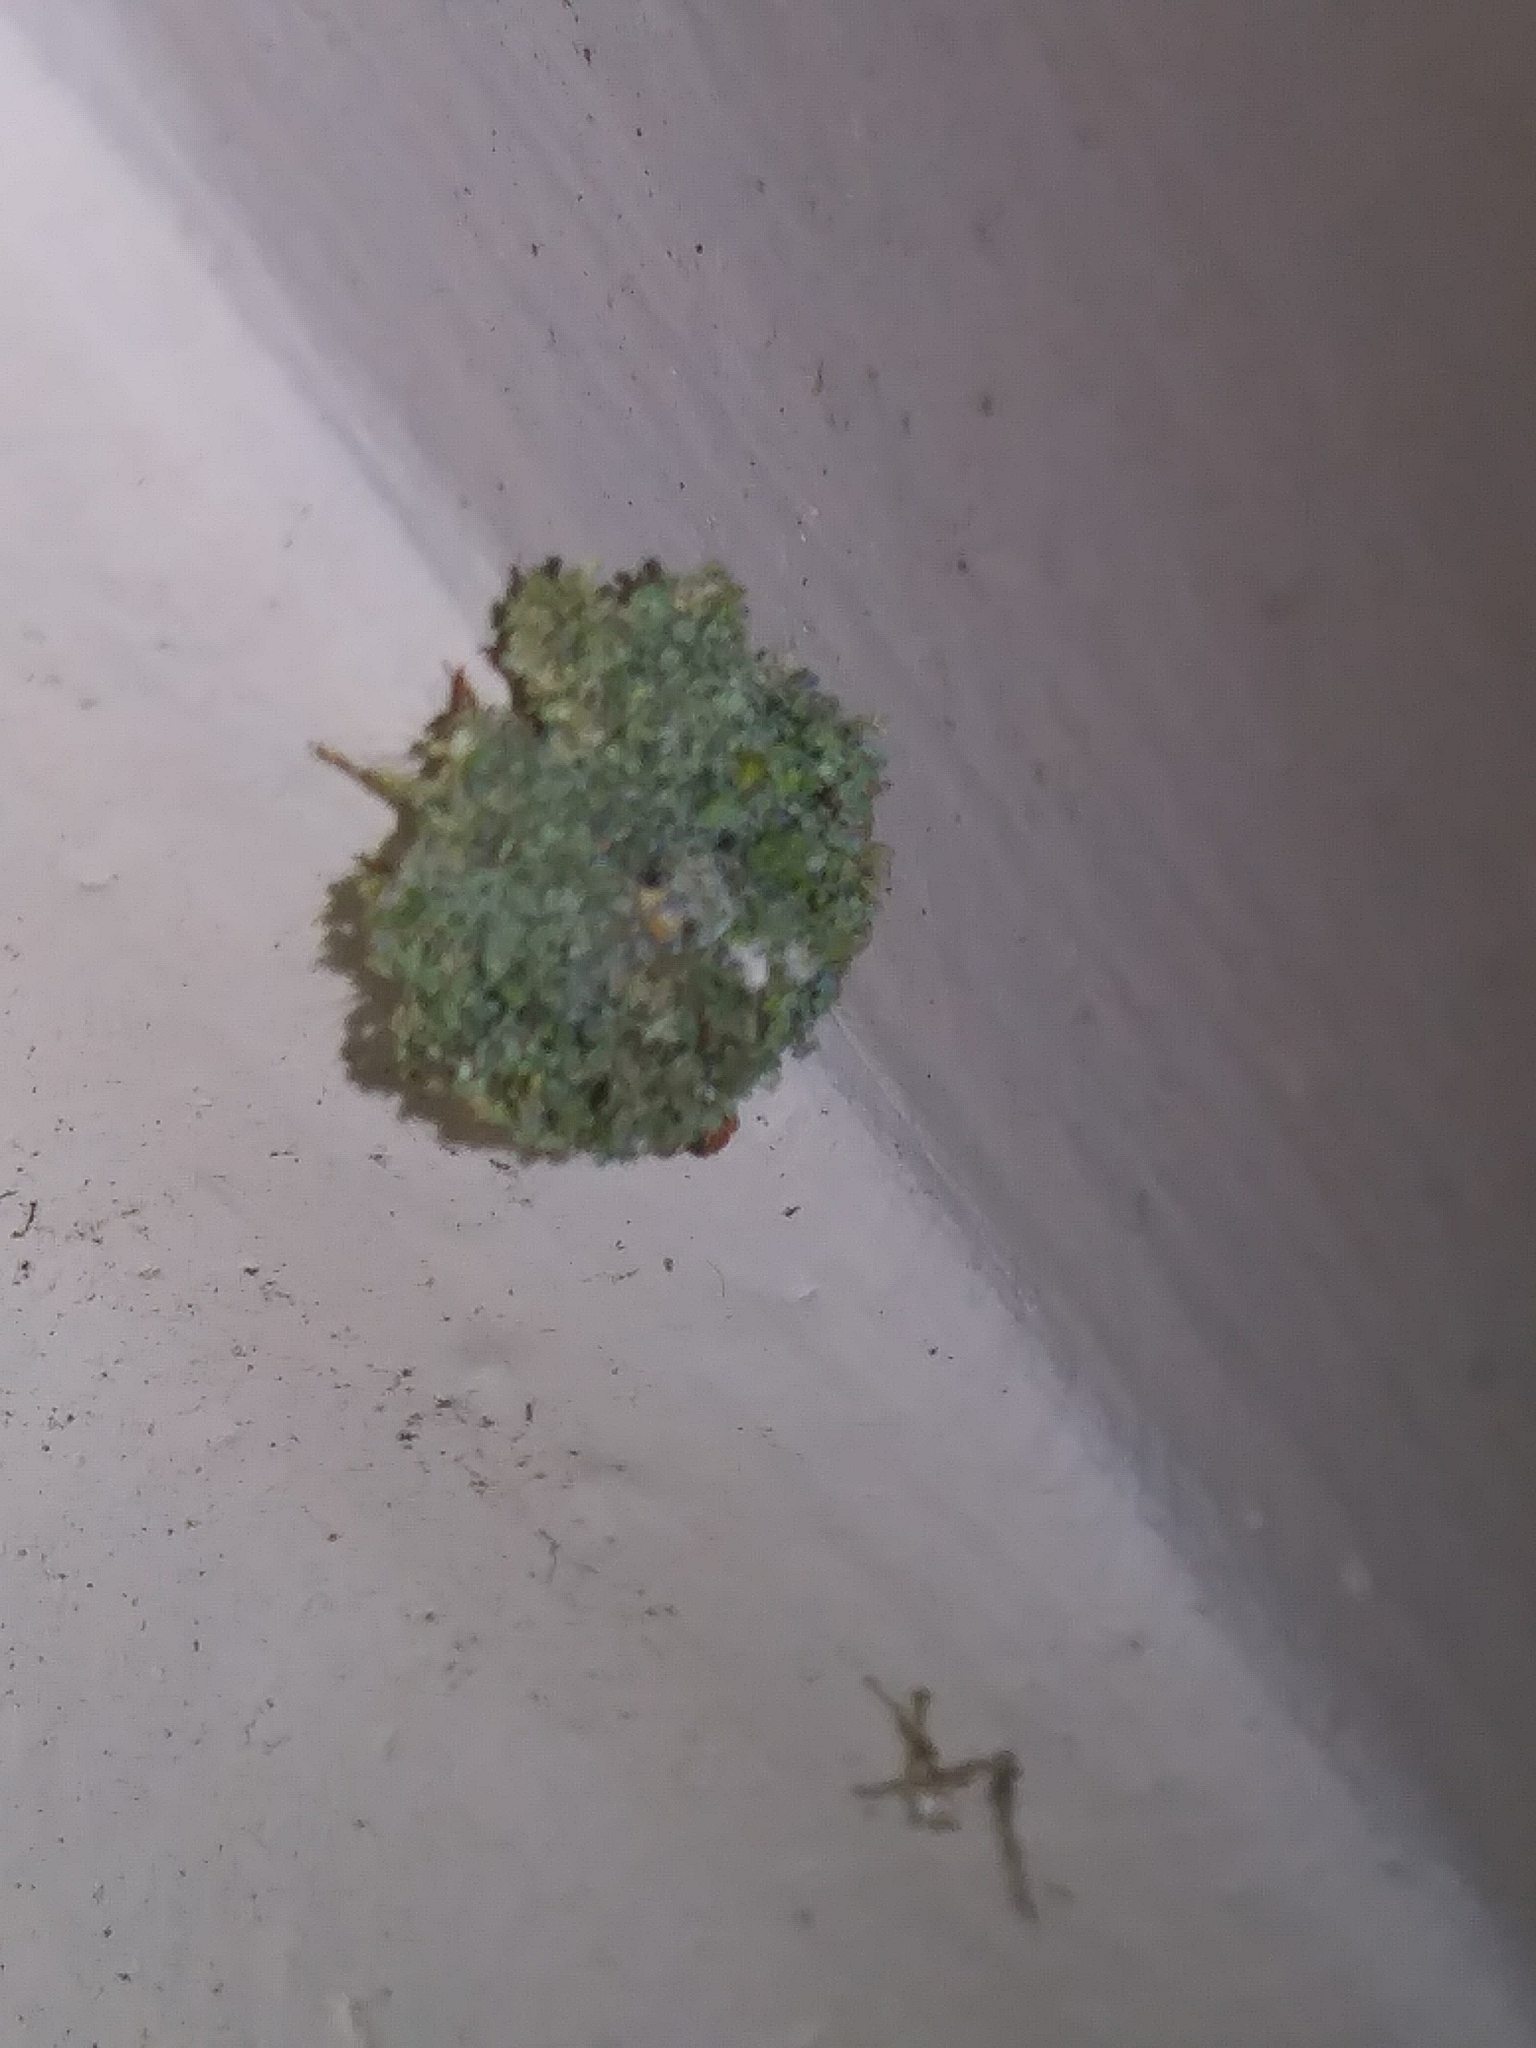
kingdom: Animalia
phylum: Arthropoda
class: Insecta
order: Neuroptera
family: Chrysopidae
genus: Leucochrysa
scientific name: Leucochrysa pavida
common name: Lichen-carrying green lacewing
